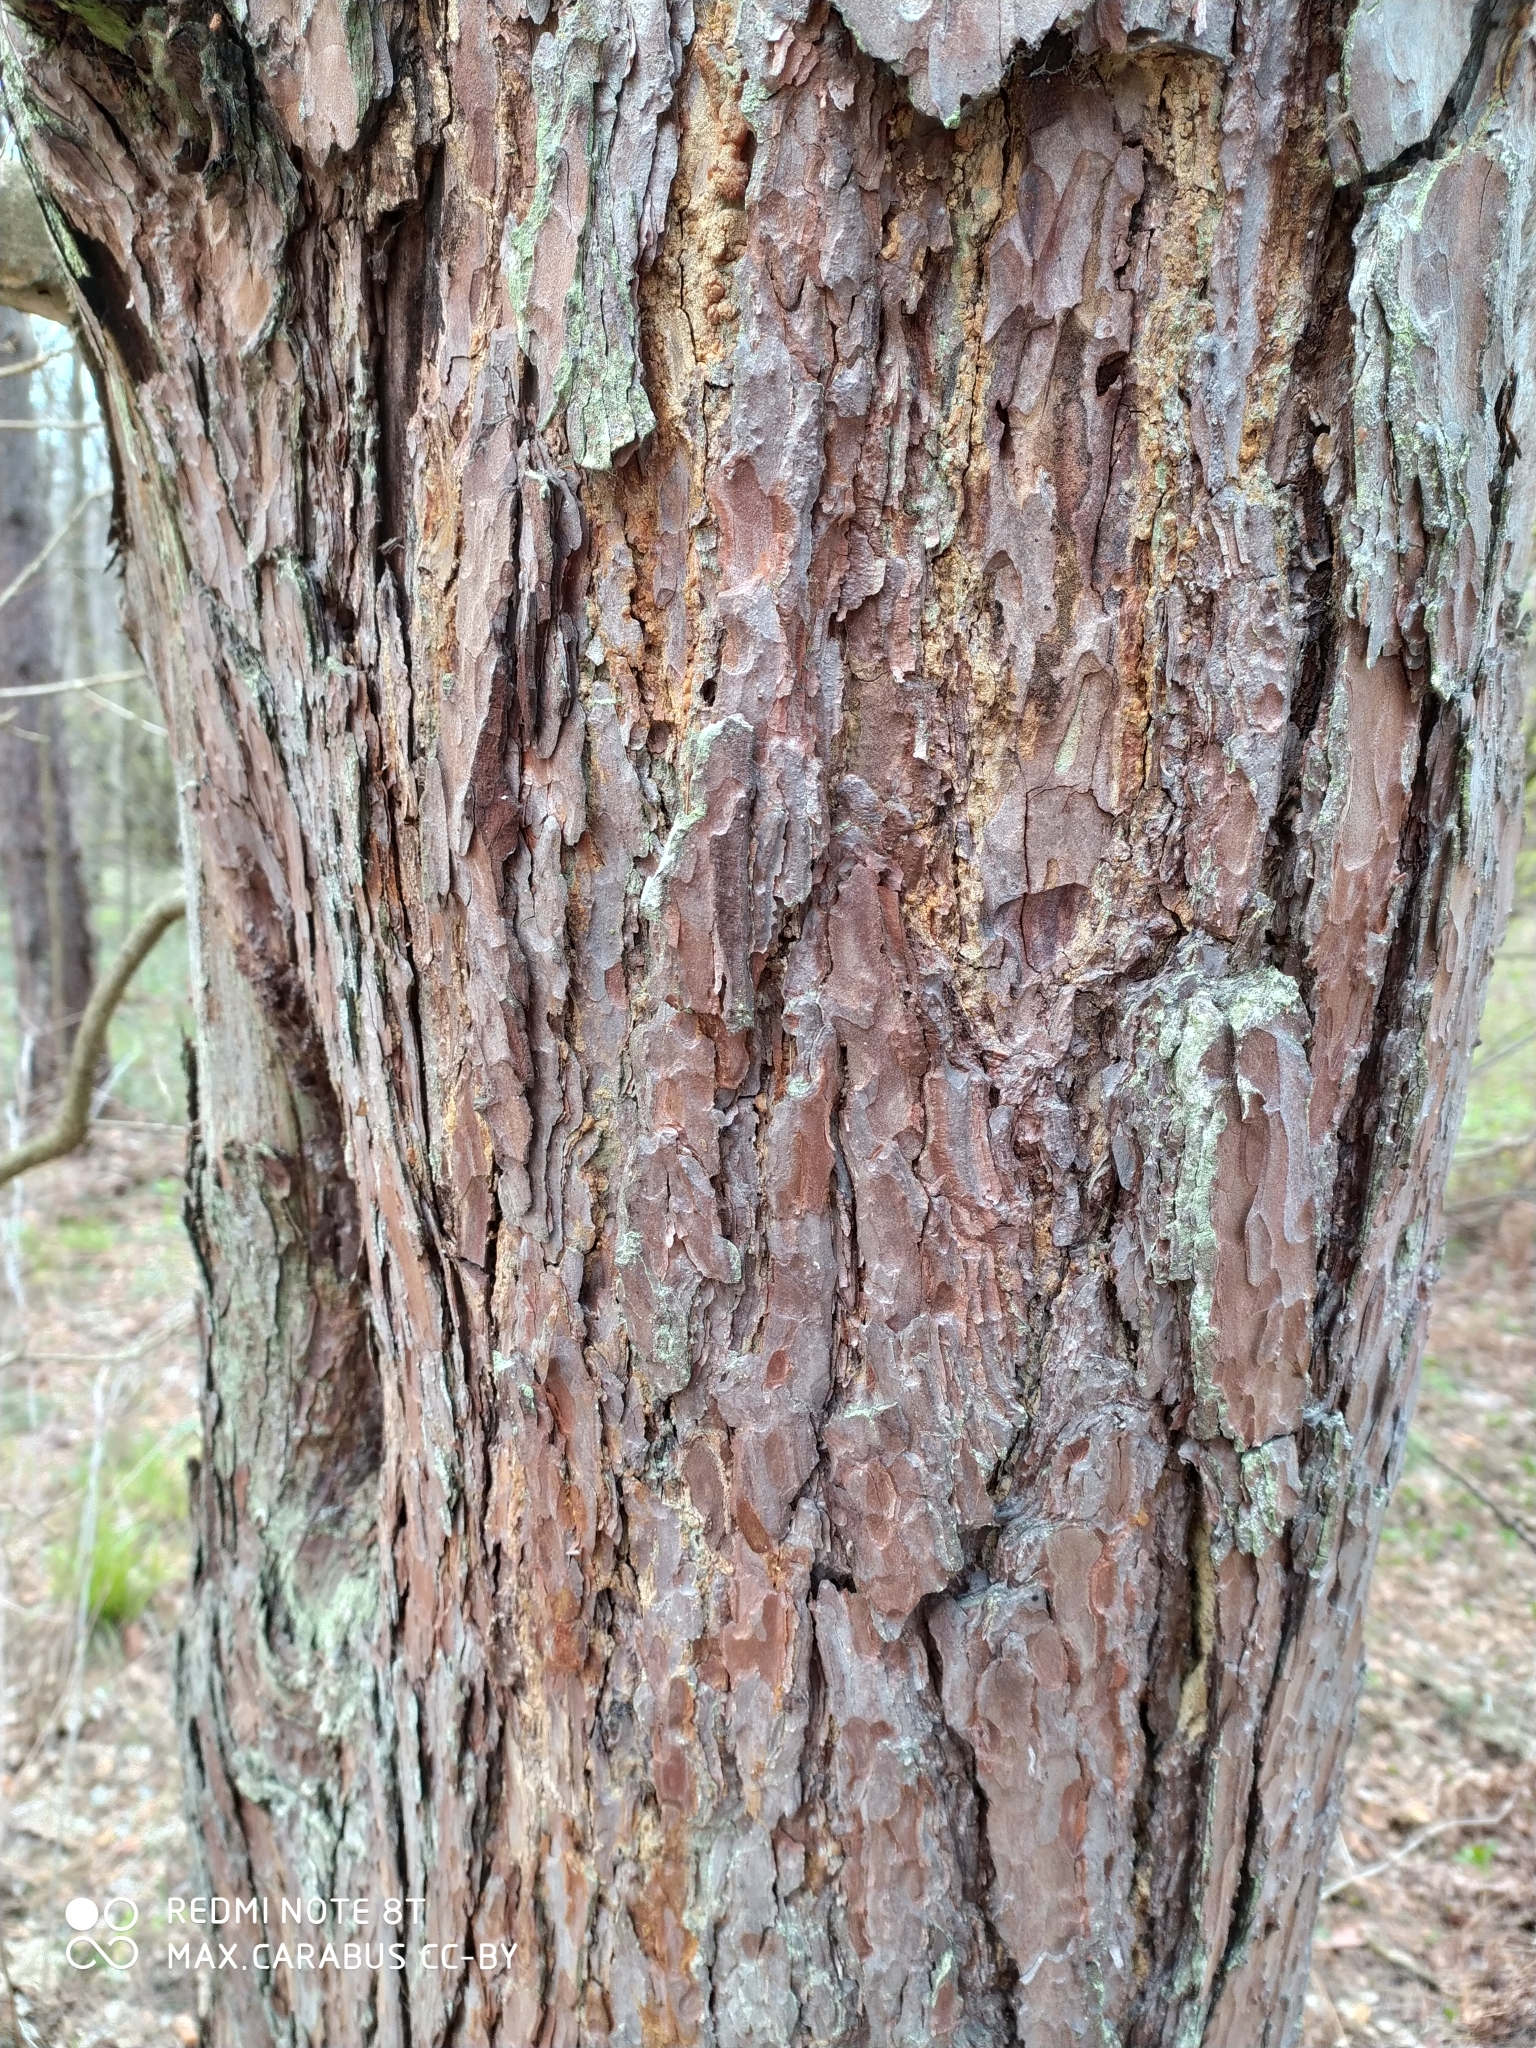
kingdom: Plantae
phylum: Tracheophyta
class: Pinopsida
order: Pinales
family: Pinaceae
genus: Pinus
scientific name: Pinus sylvestris
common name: Scots pine
